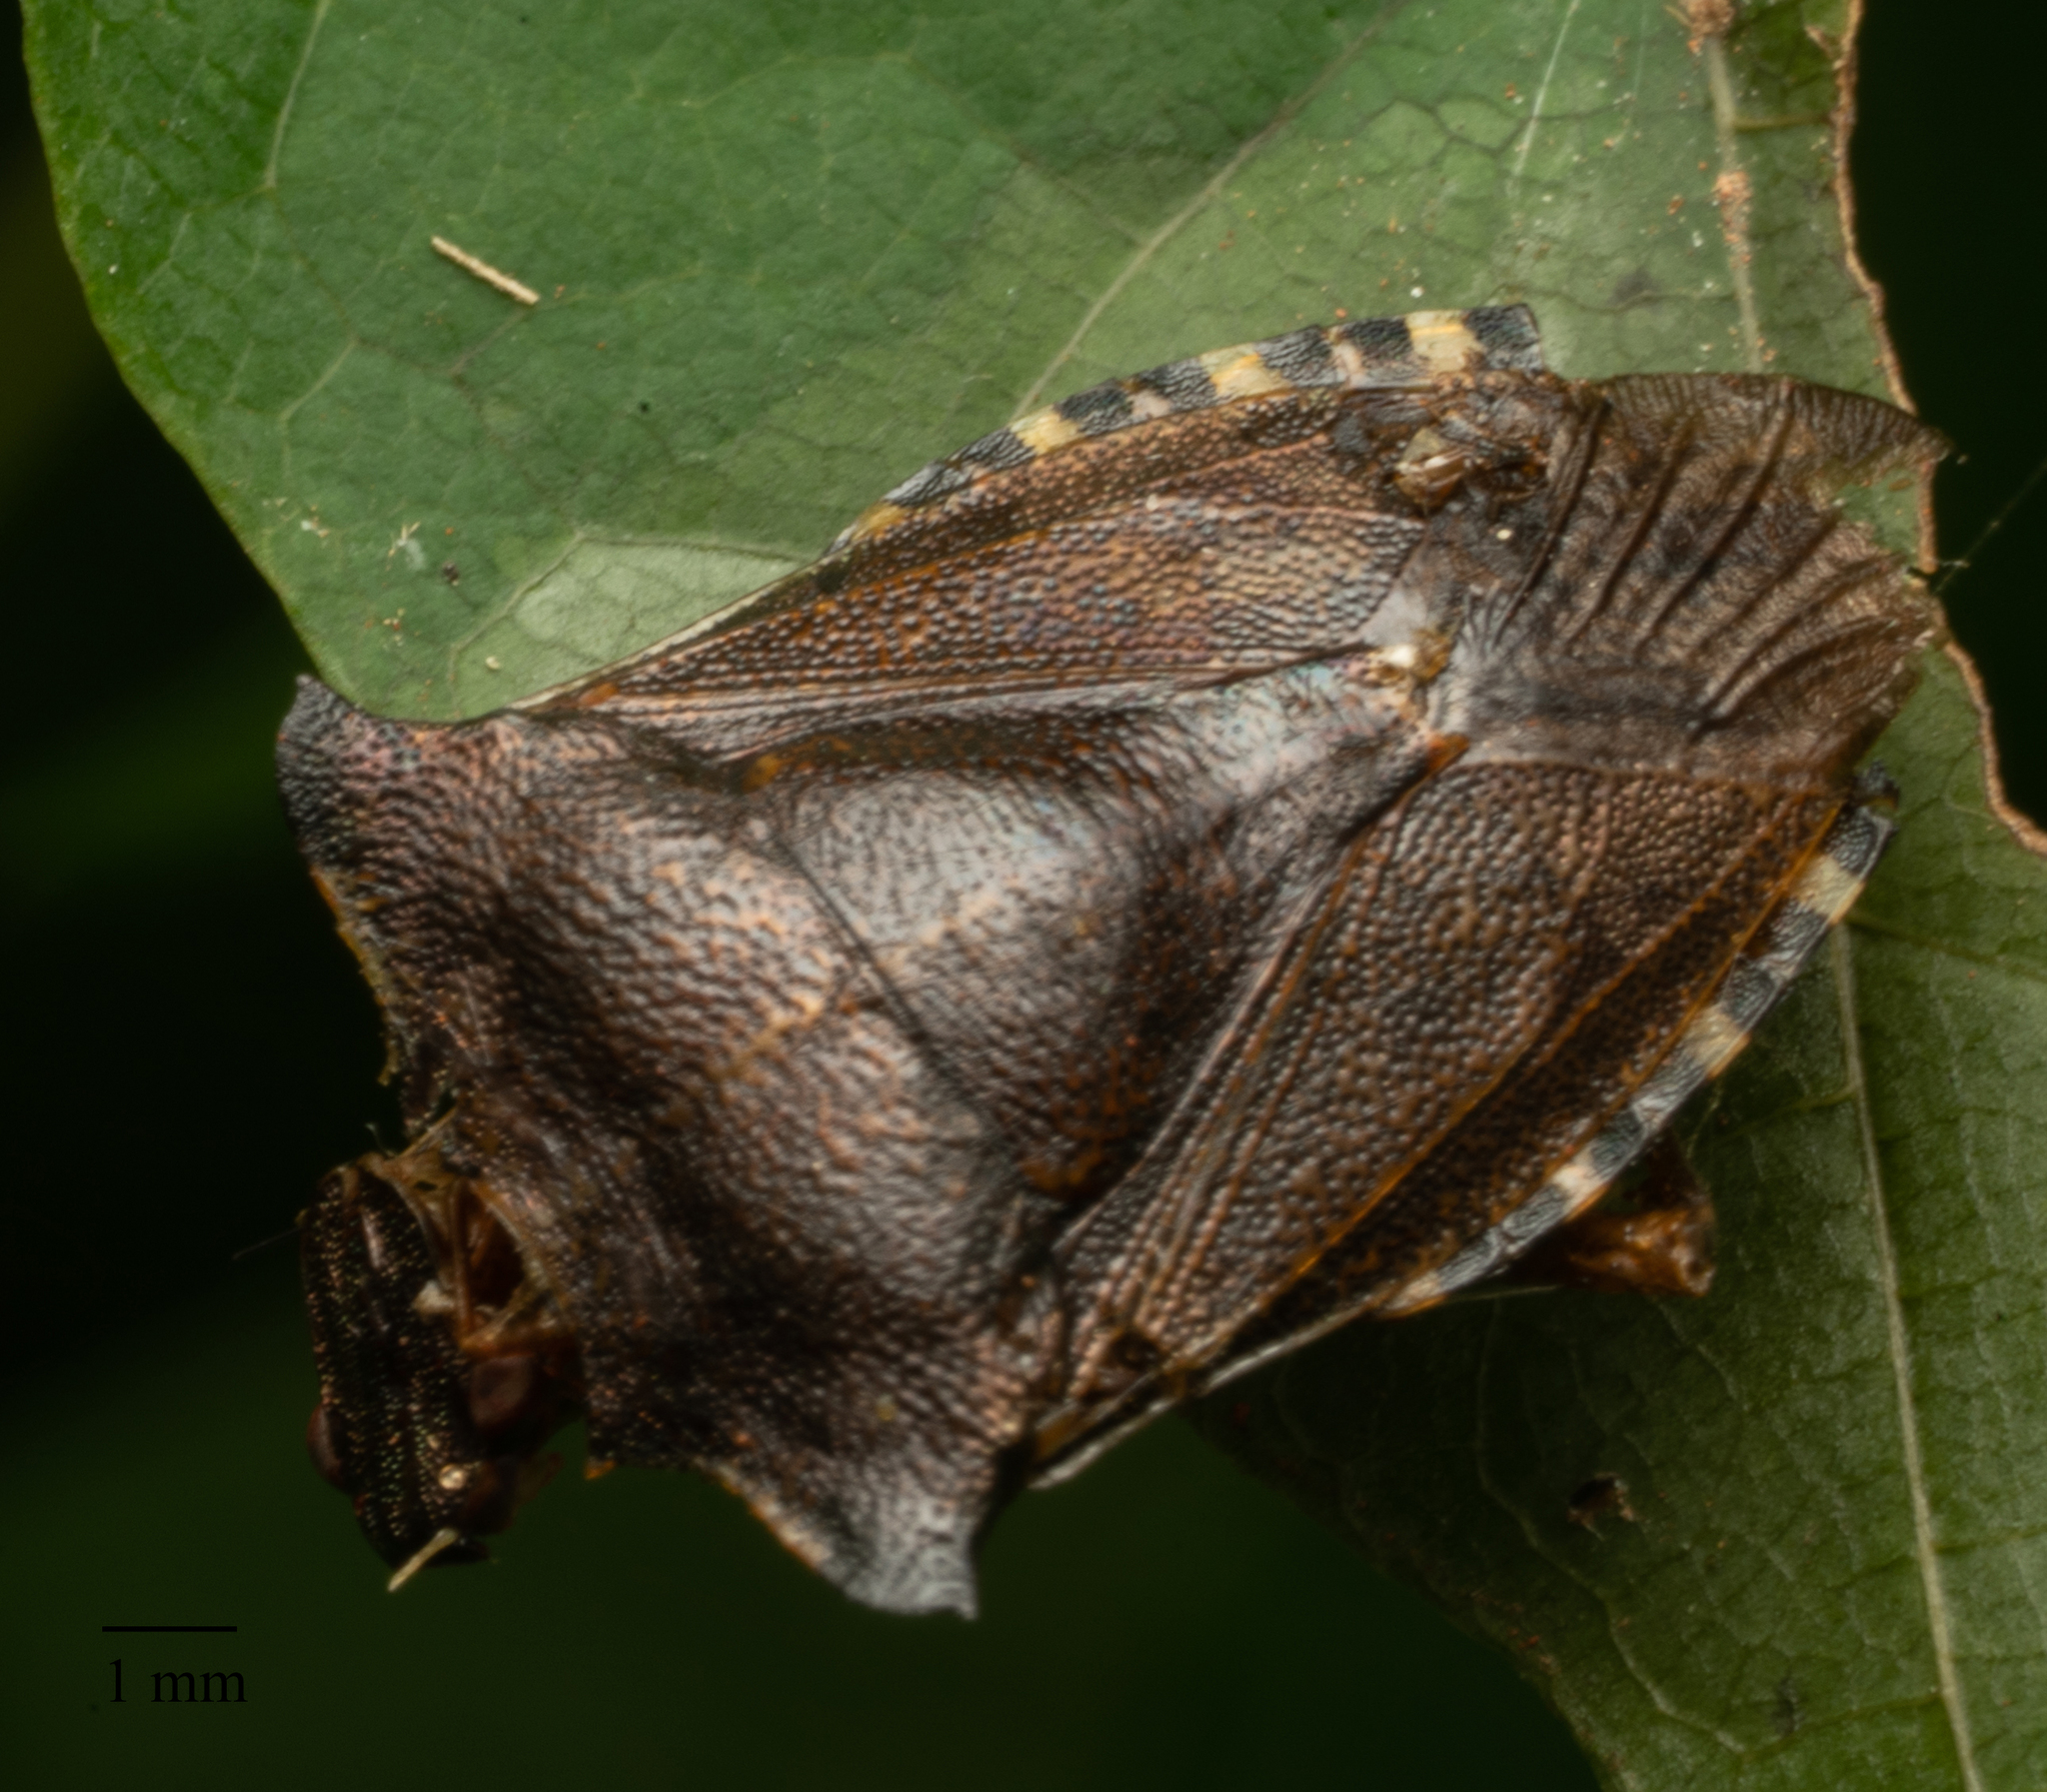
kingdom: Animalia
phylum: Arthropoda
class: Insecta
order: Hemiptera
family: Pentatomidae
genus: Pentatoma
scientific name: Pentatoma rufipes
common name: Forest bug
